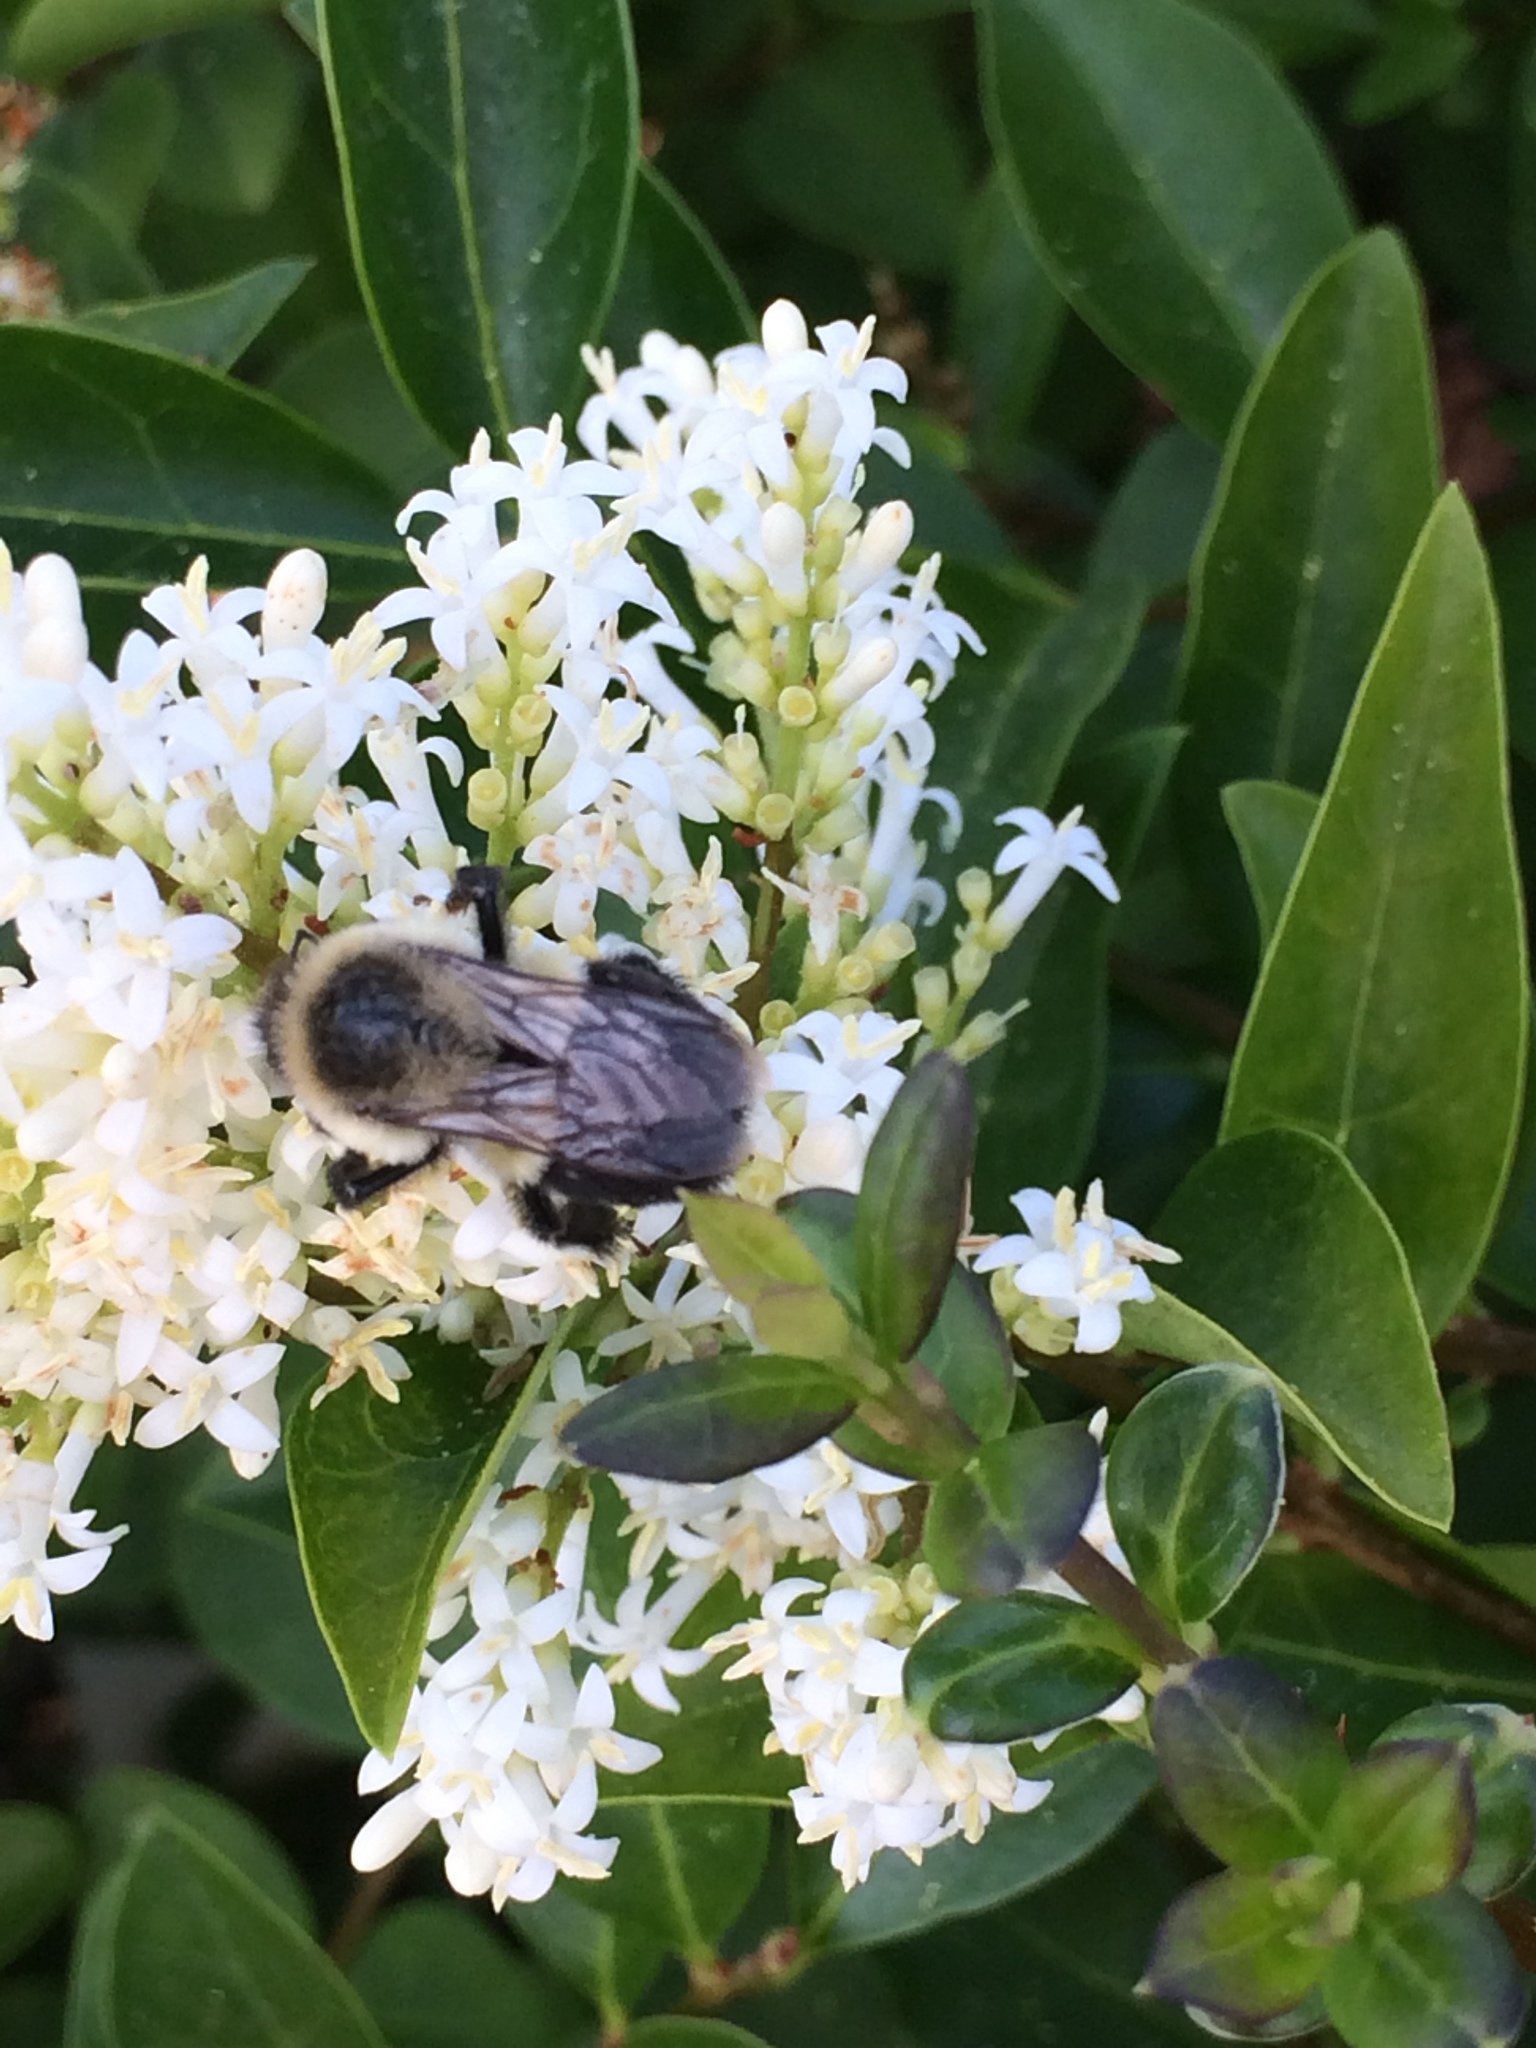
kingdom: Animalia
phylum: Arthropoda
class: Insecta
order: Hymenoptera
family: Apidae
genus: Bombus
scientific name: Bombus impatiens
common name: Common eastern bumble bee
